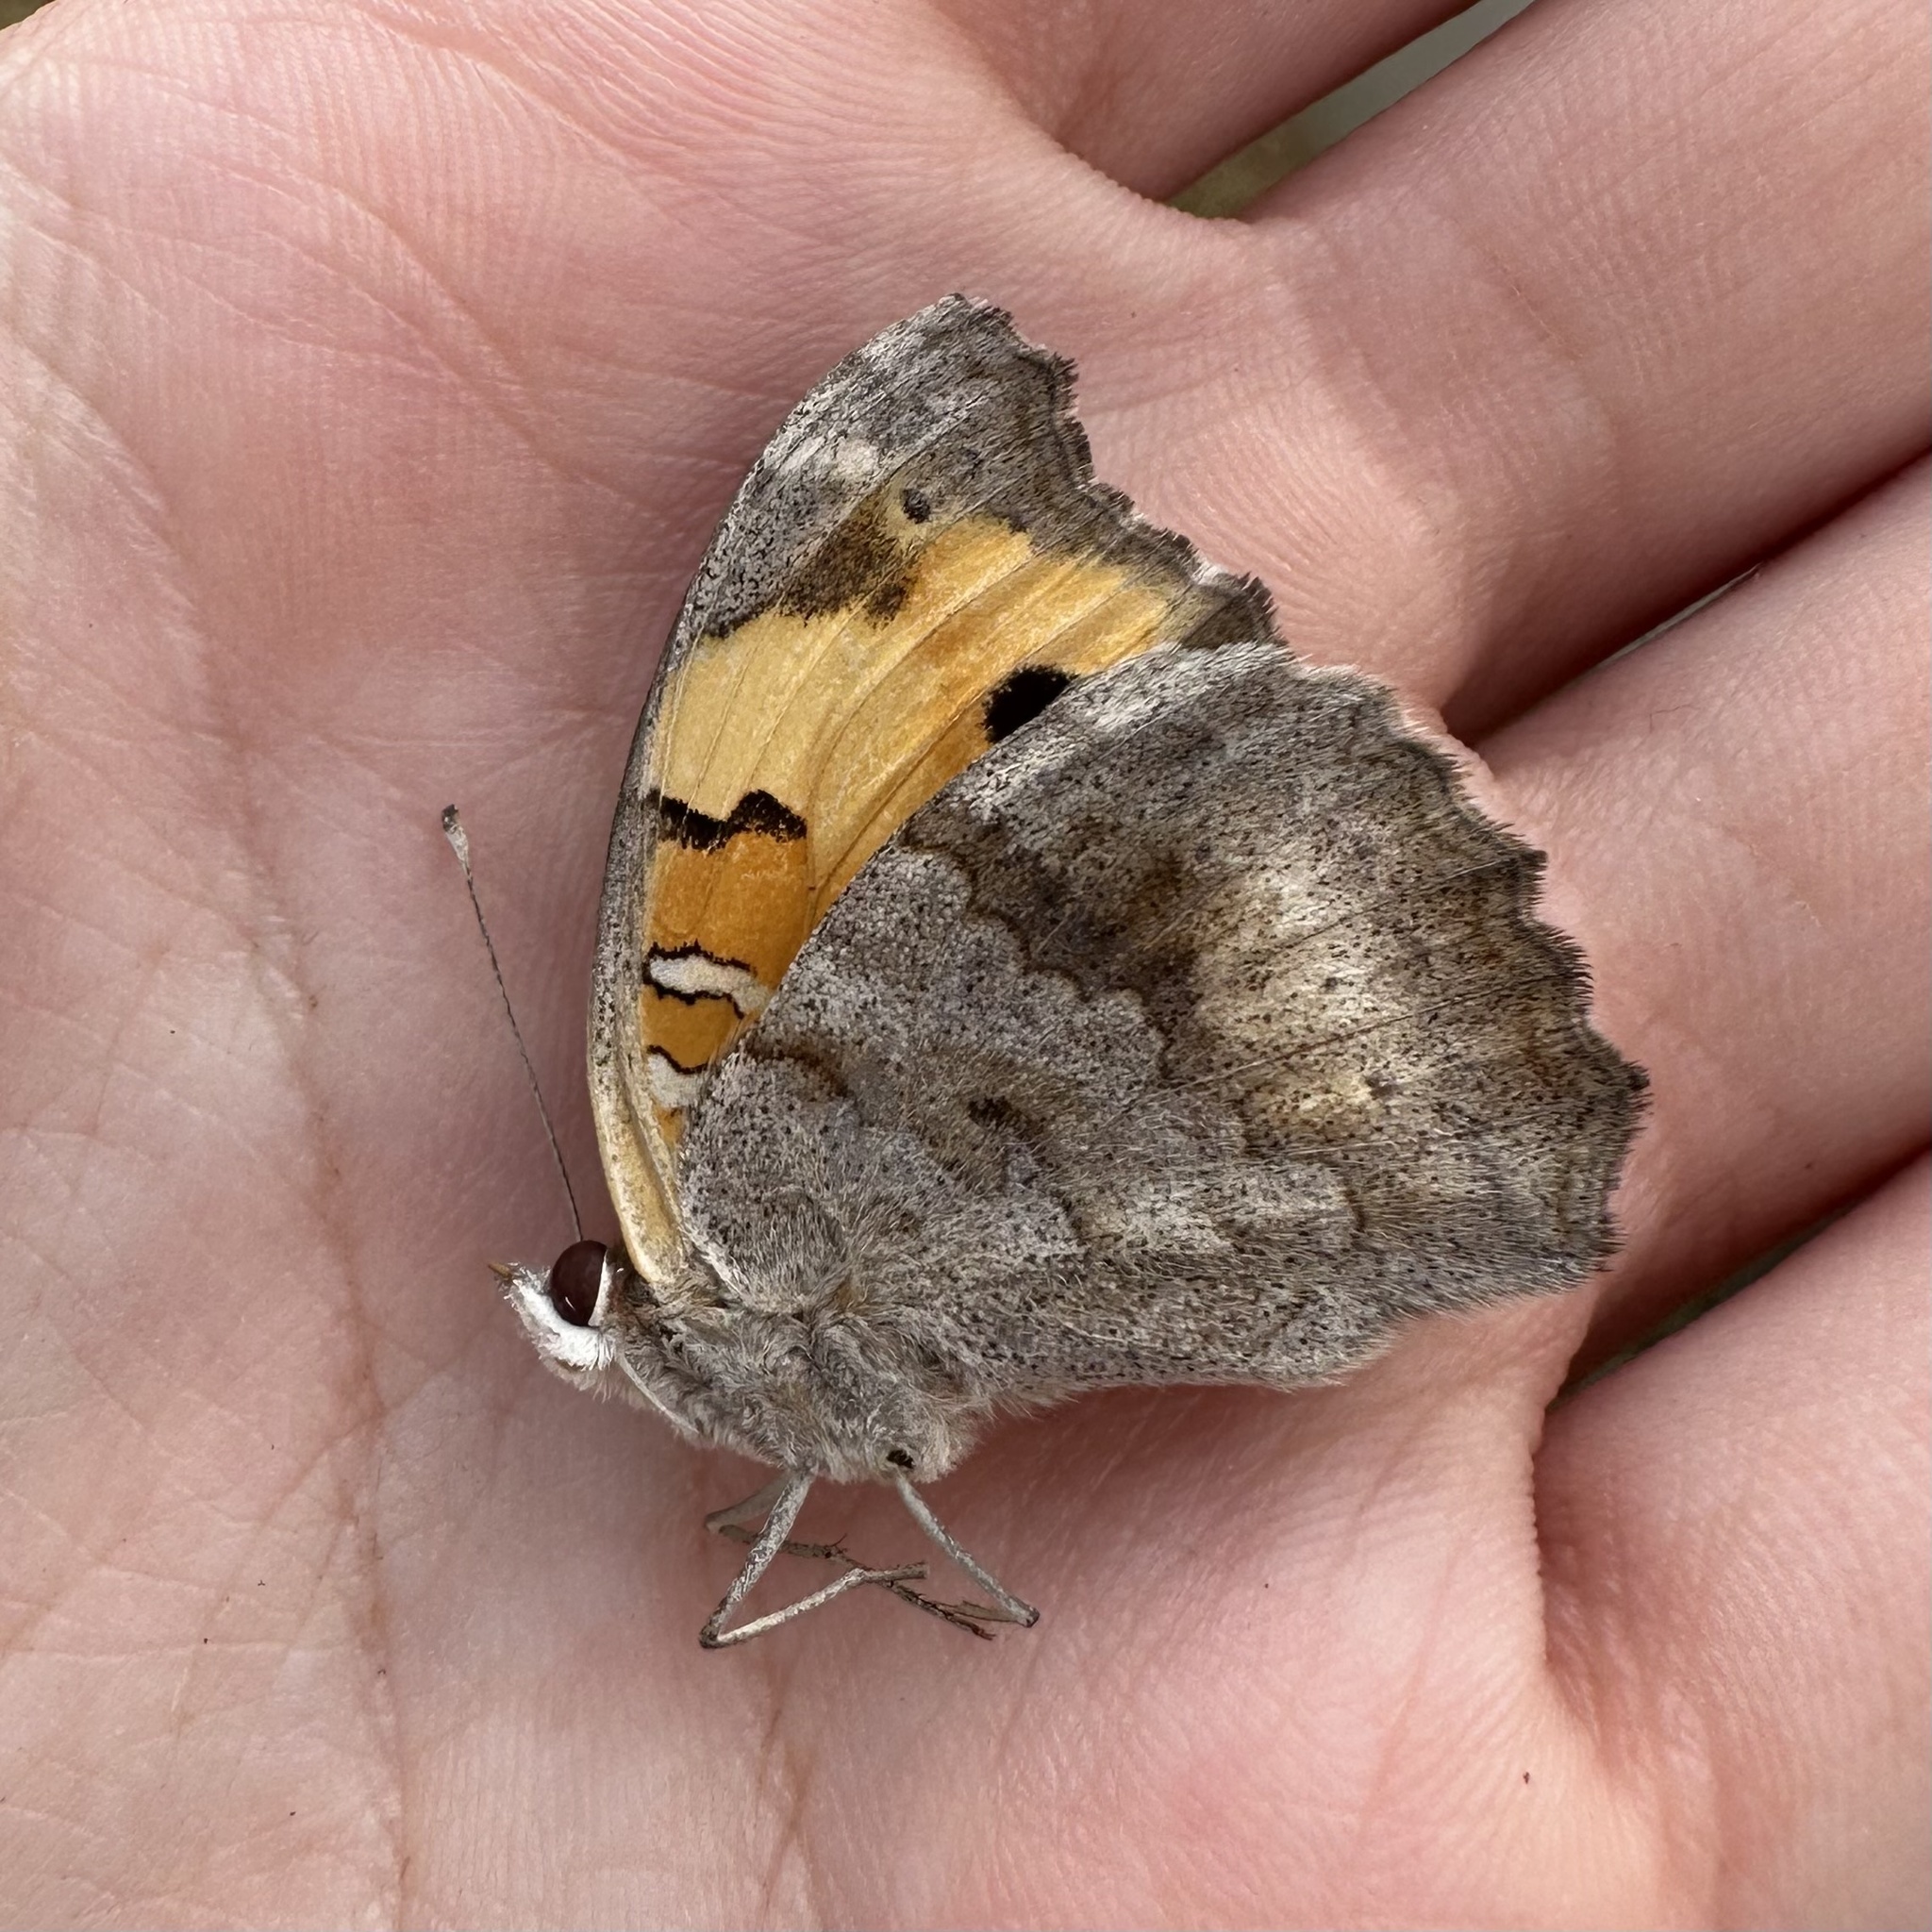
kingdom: Animalia
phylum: Arthropoda
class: Insecta
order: Lepidoptera
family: Nymphalidae
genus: Junonia
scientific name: Junonia hierta
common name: Yellow pansy
